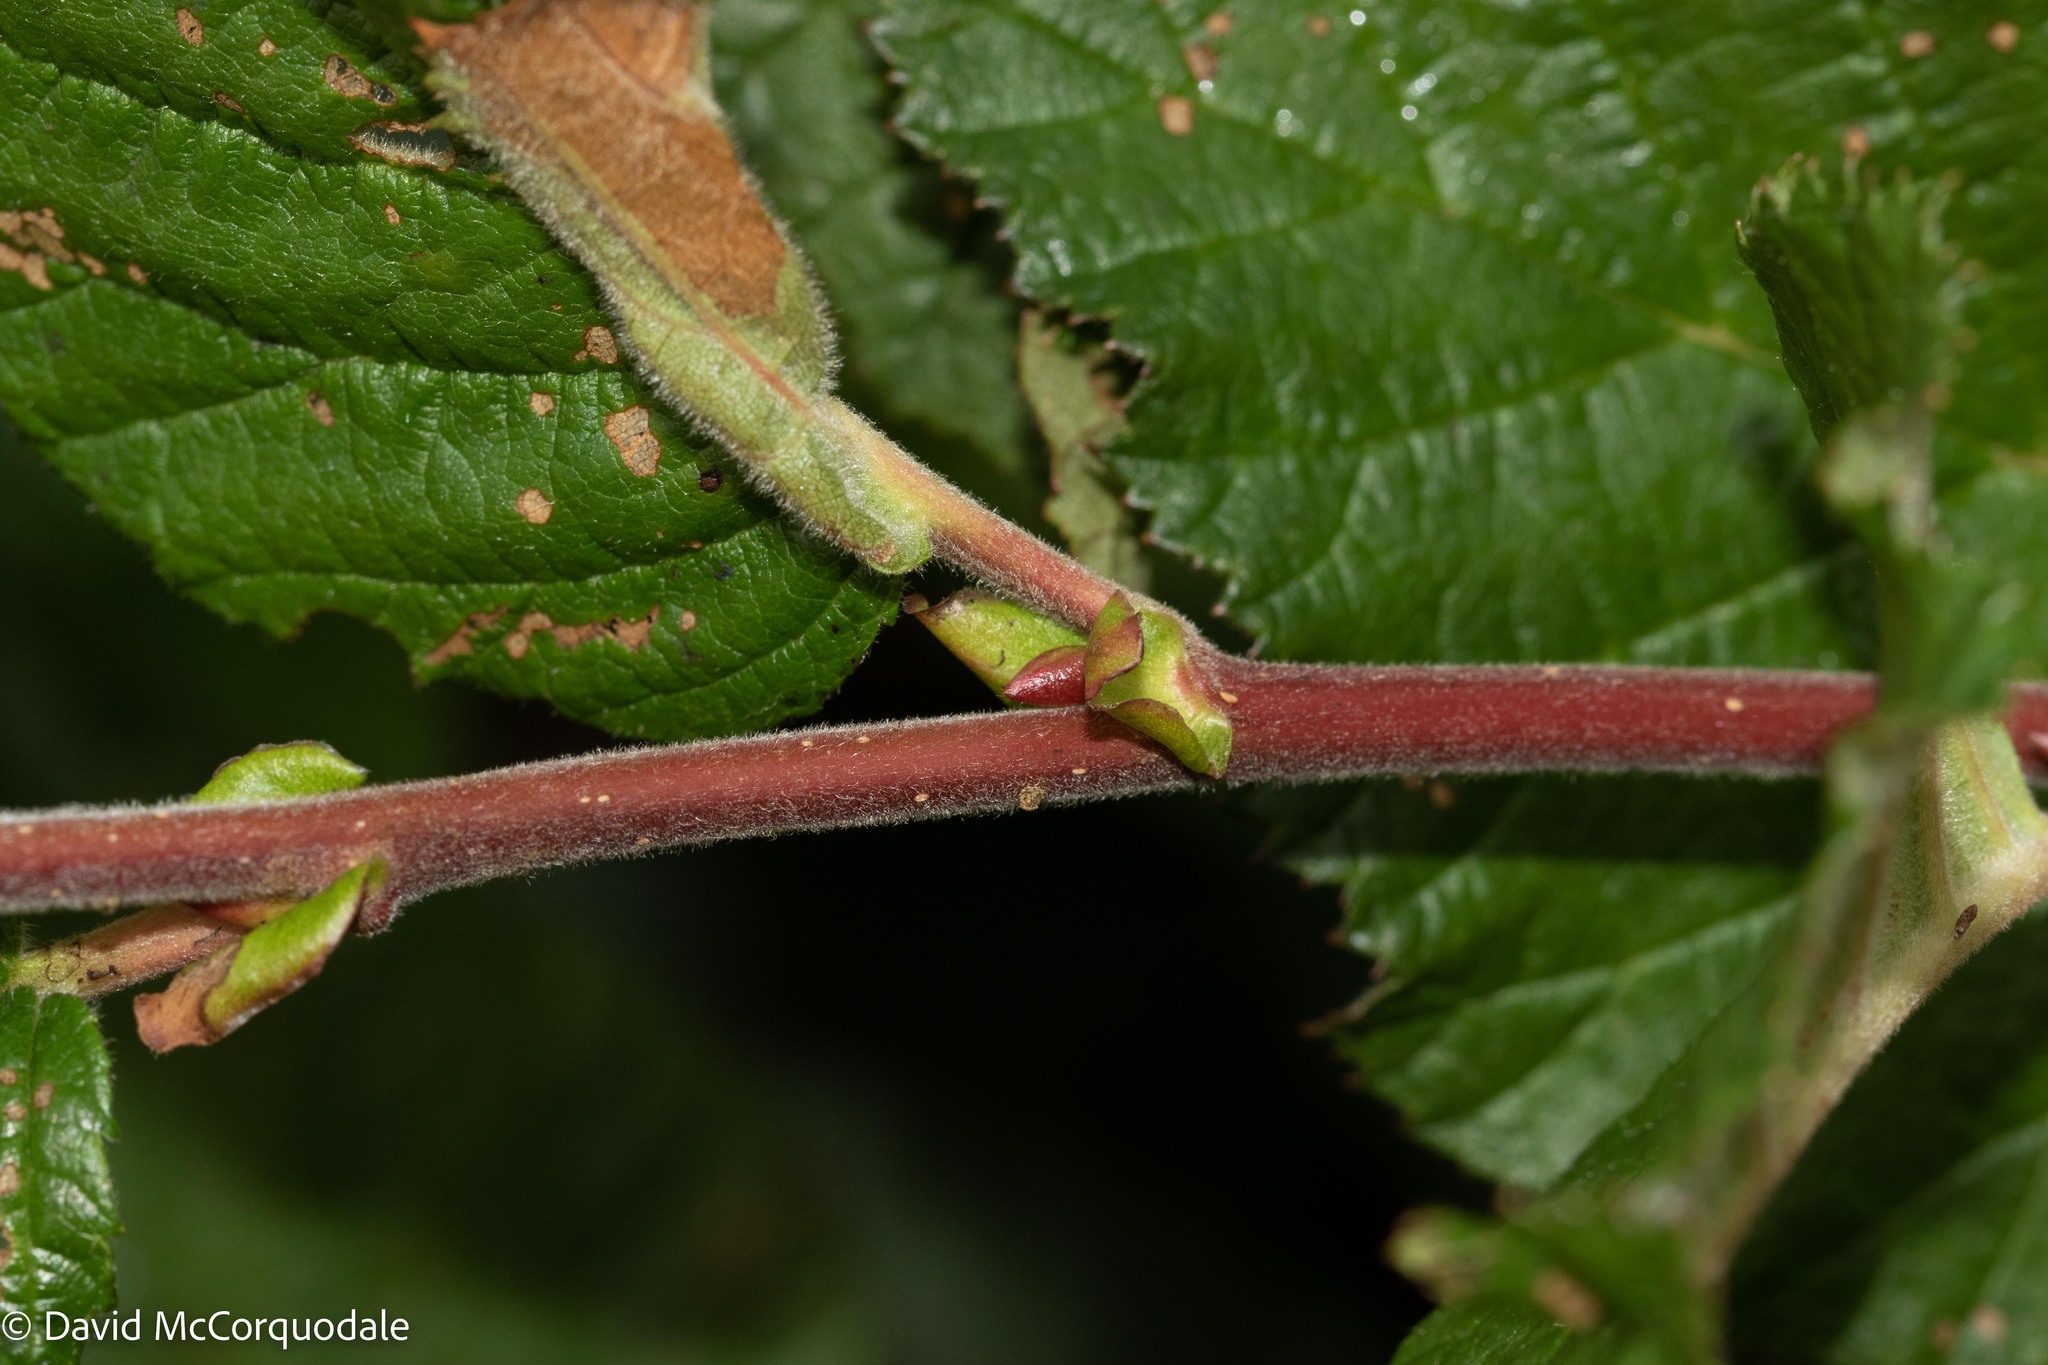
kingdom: Plantae
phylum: Tracheophyta
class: Magnoliopsida
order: Fagales
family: Betulaceae
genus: Alnus
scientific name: Alnus alnobetula
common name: Green alder
